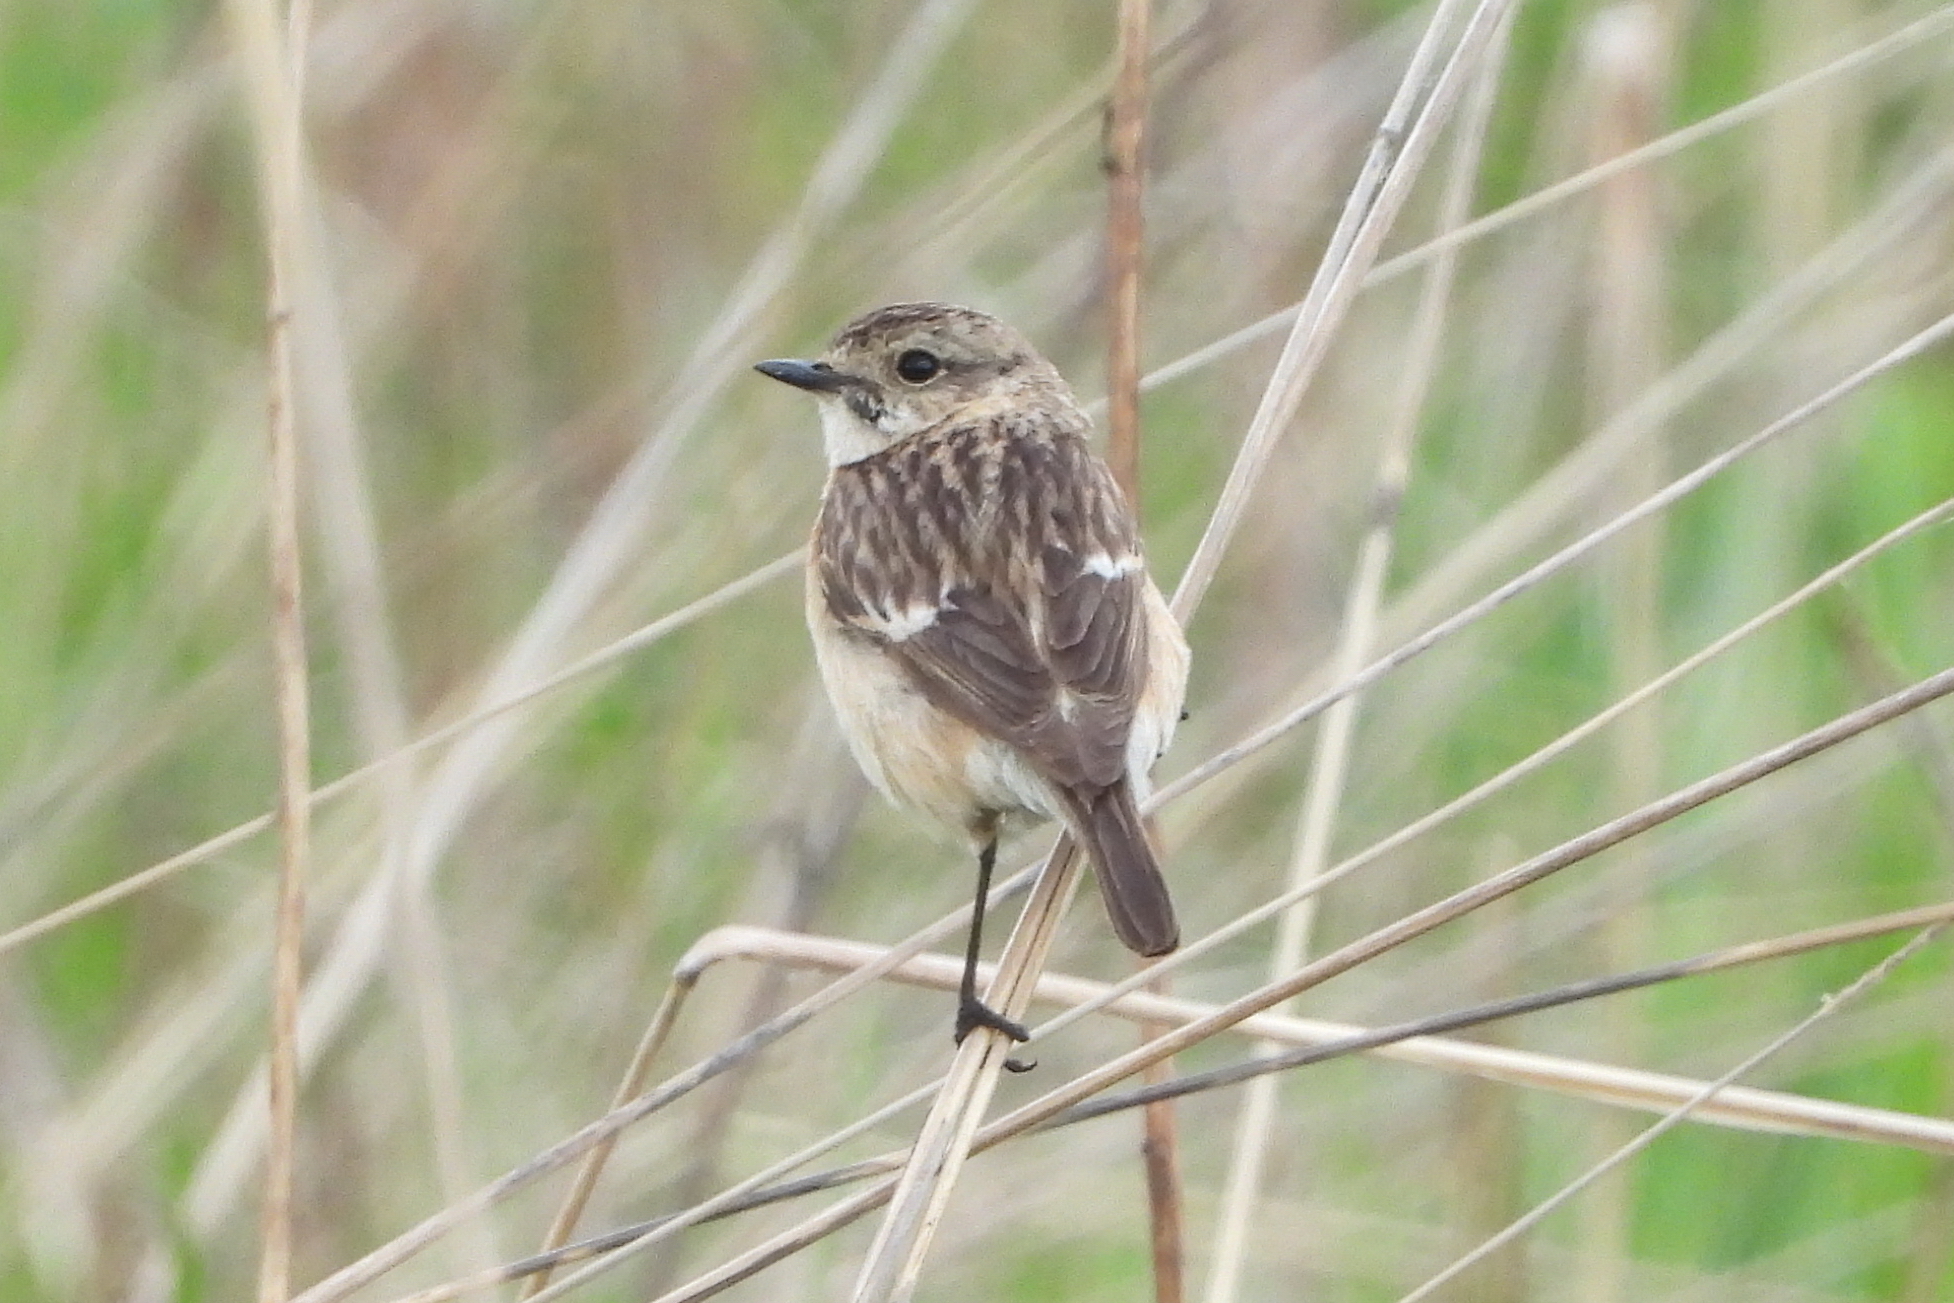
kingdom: Animalia
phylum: Chordata
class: Aves
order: Passeriformes
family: Muscicapidae
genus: Saxicola
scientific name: Saxicola maurus
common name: Siberian stonechat
